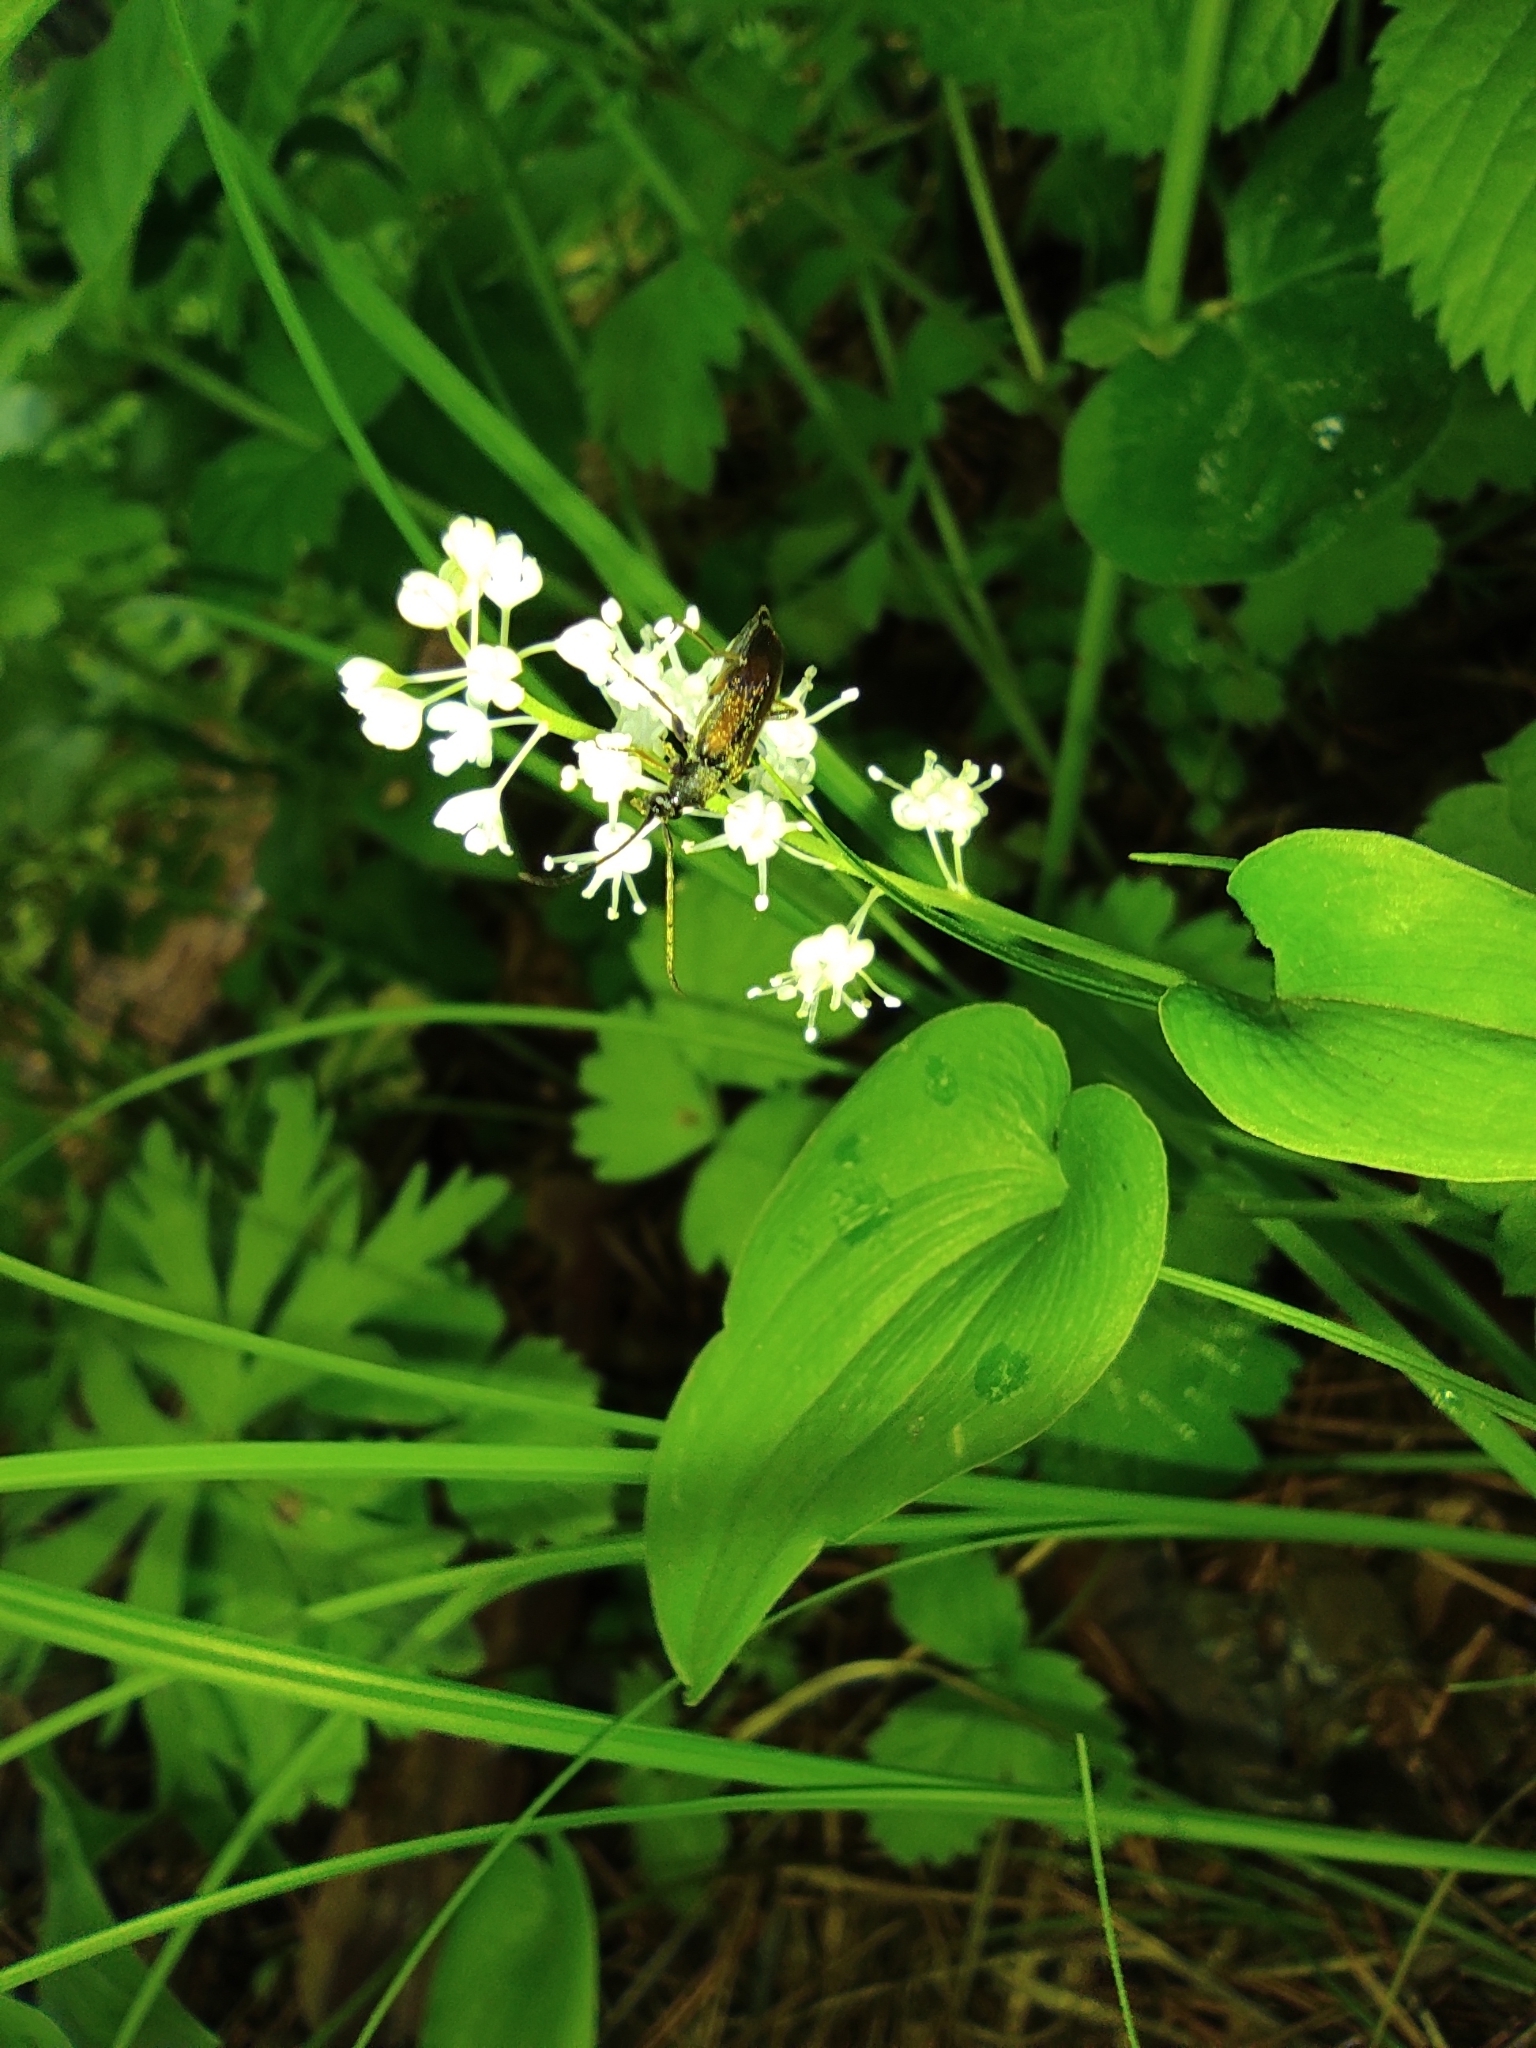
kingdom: Plantae
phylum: Tracheophyta
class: Liliopsida
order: Asparagales
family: Asparagaceae
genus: Maianthemum
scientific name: Maianthemum bifolium
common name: May lily
